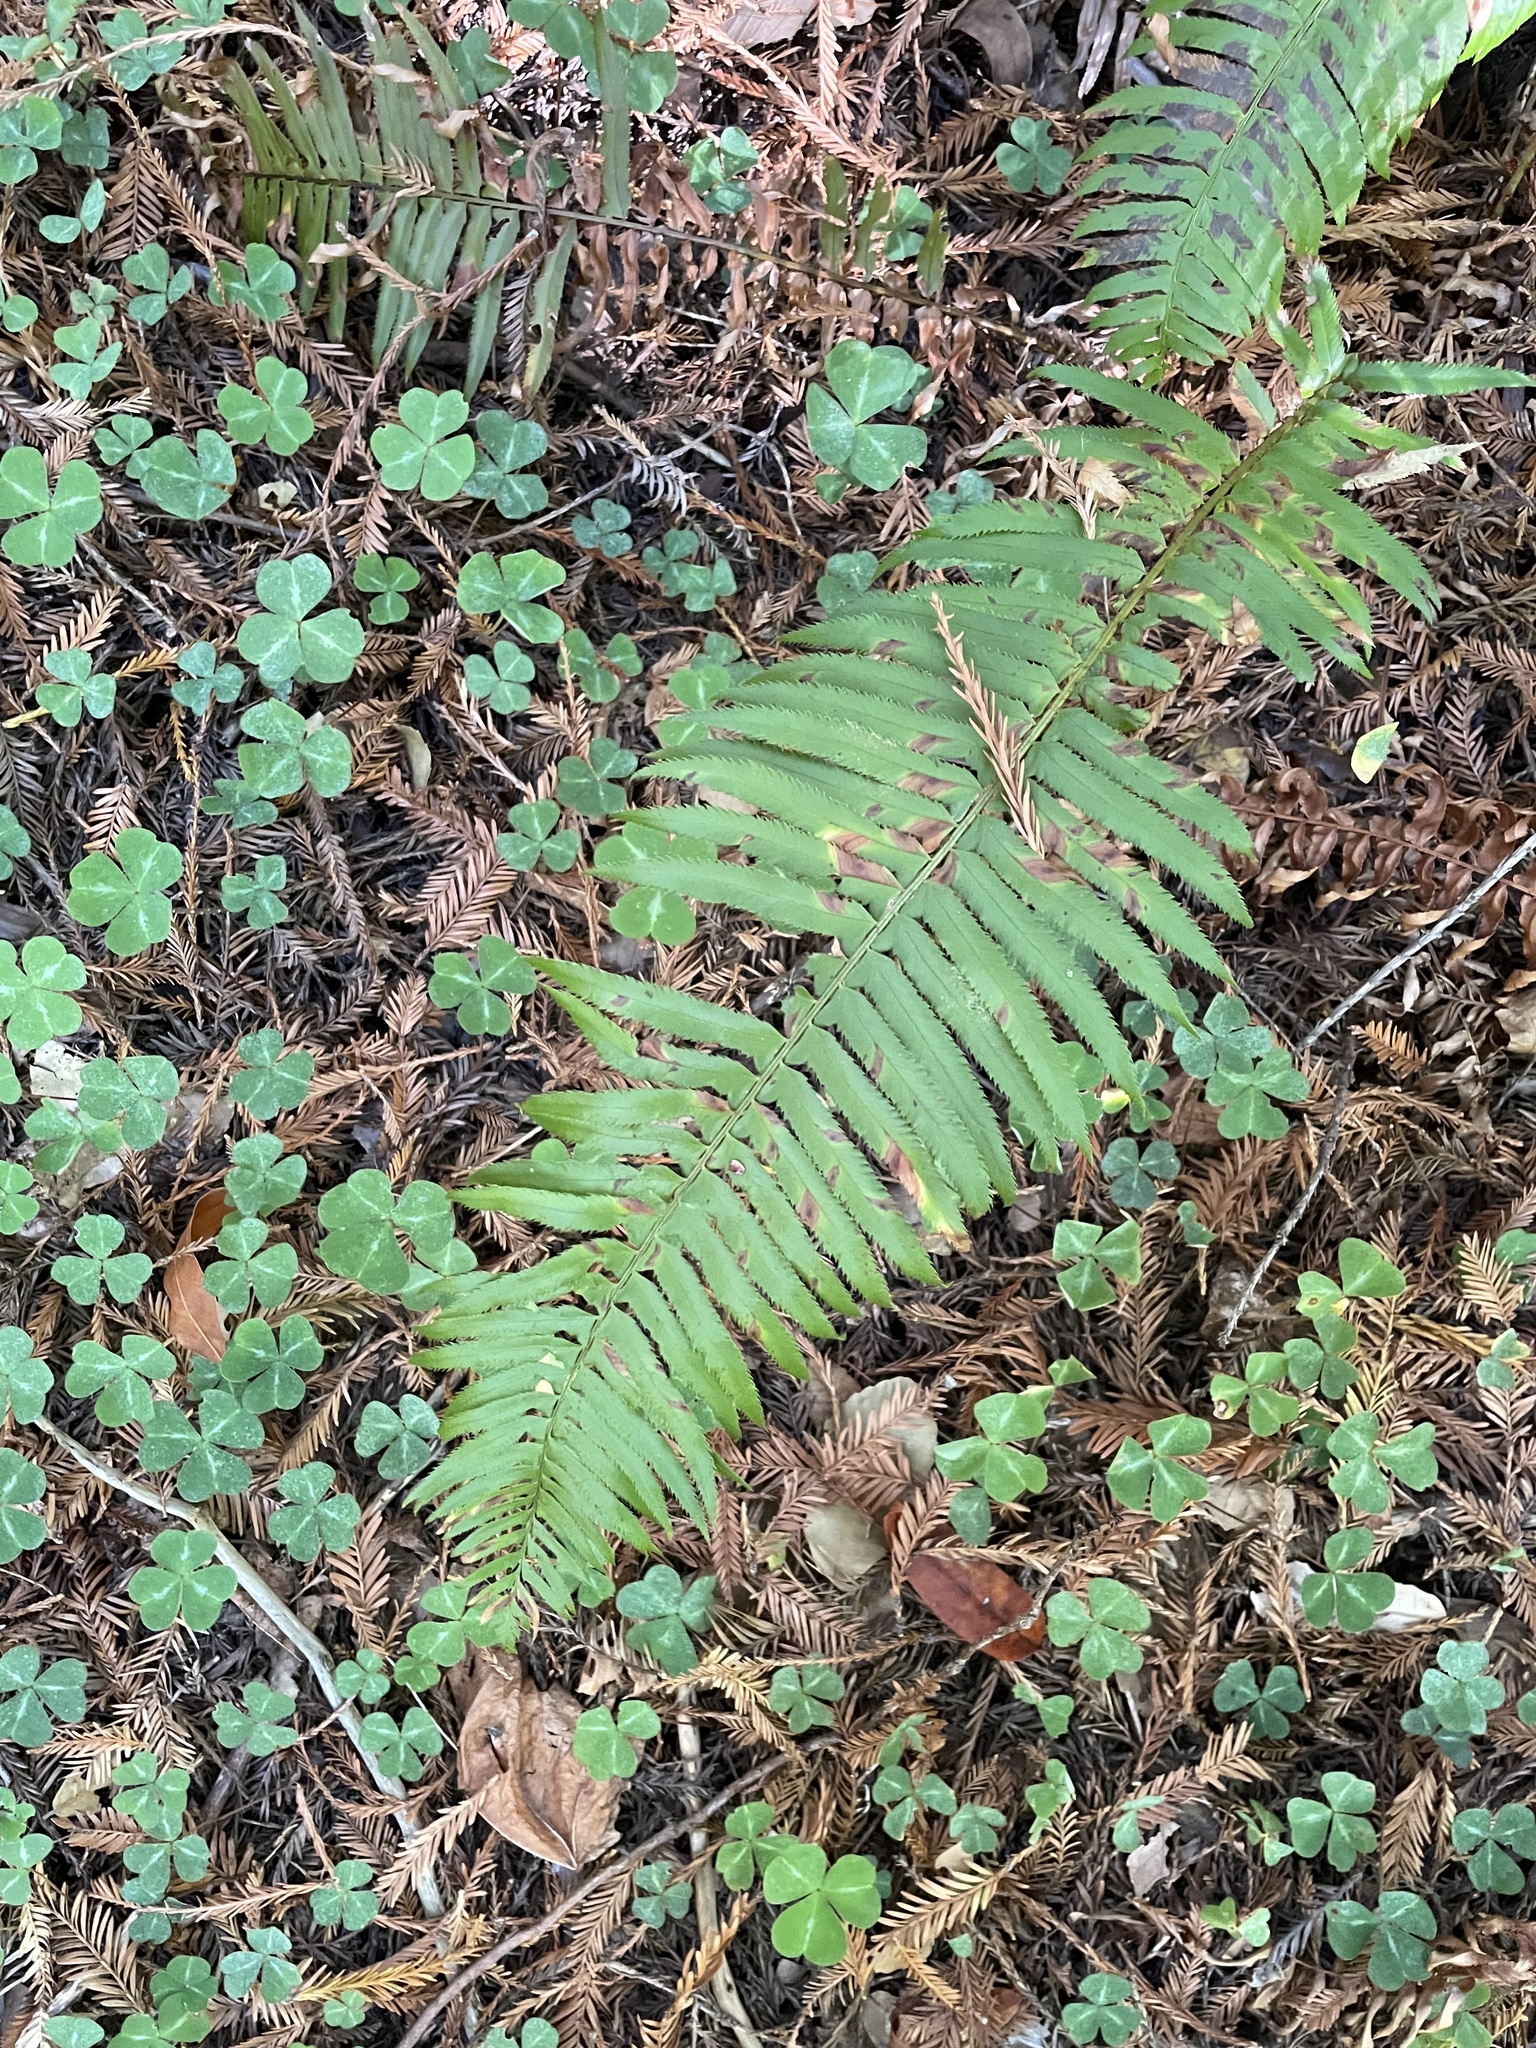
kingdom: Plantae
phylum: Tracheophyta
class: Polypodiopsida
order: Polypodiales
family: Dryopteridaceae
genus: Polystichum
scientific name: Polystichum munitum
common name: Western sword-fern
